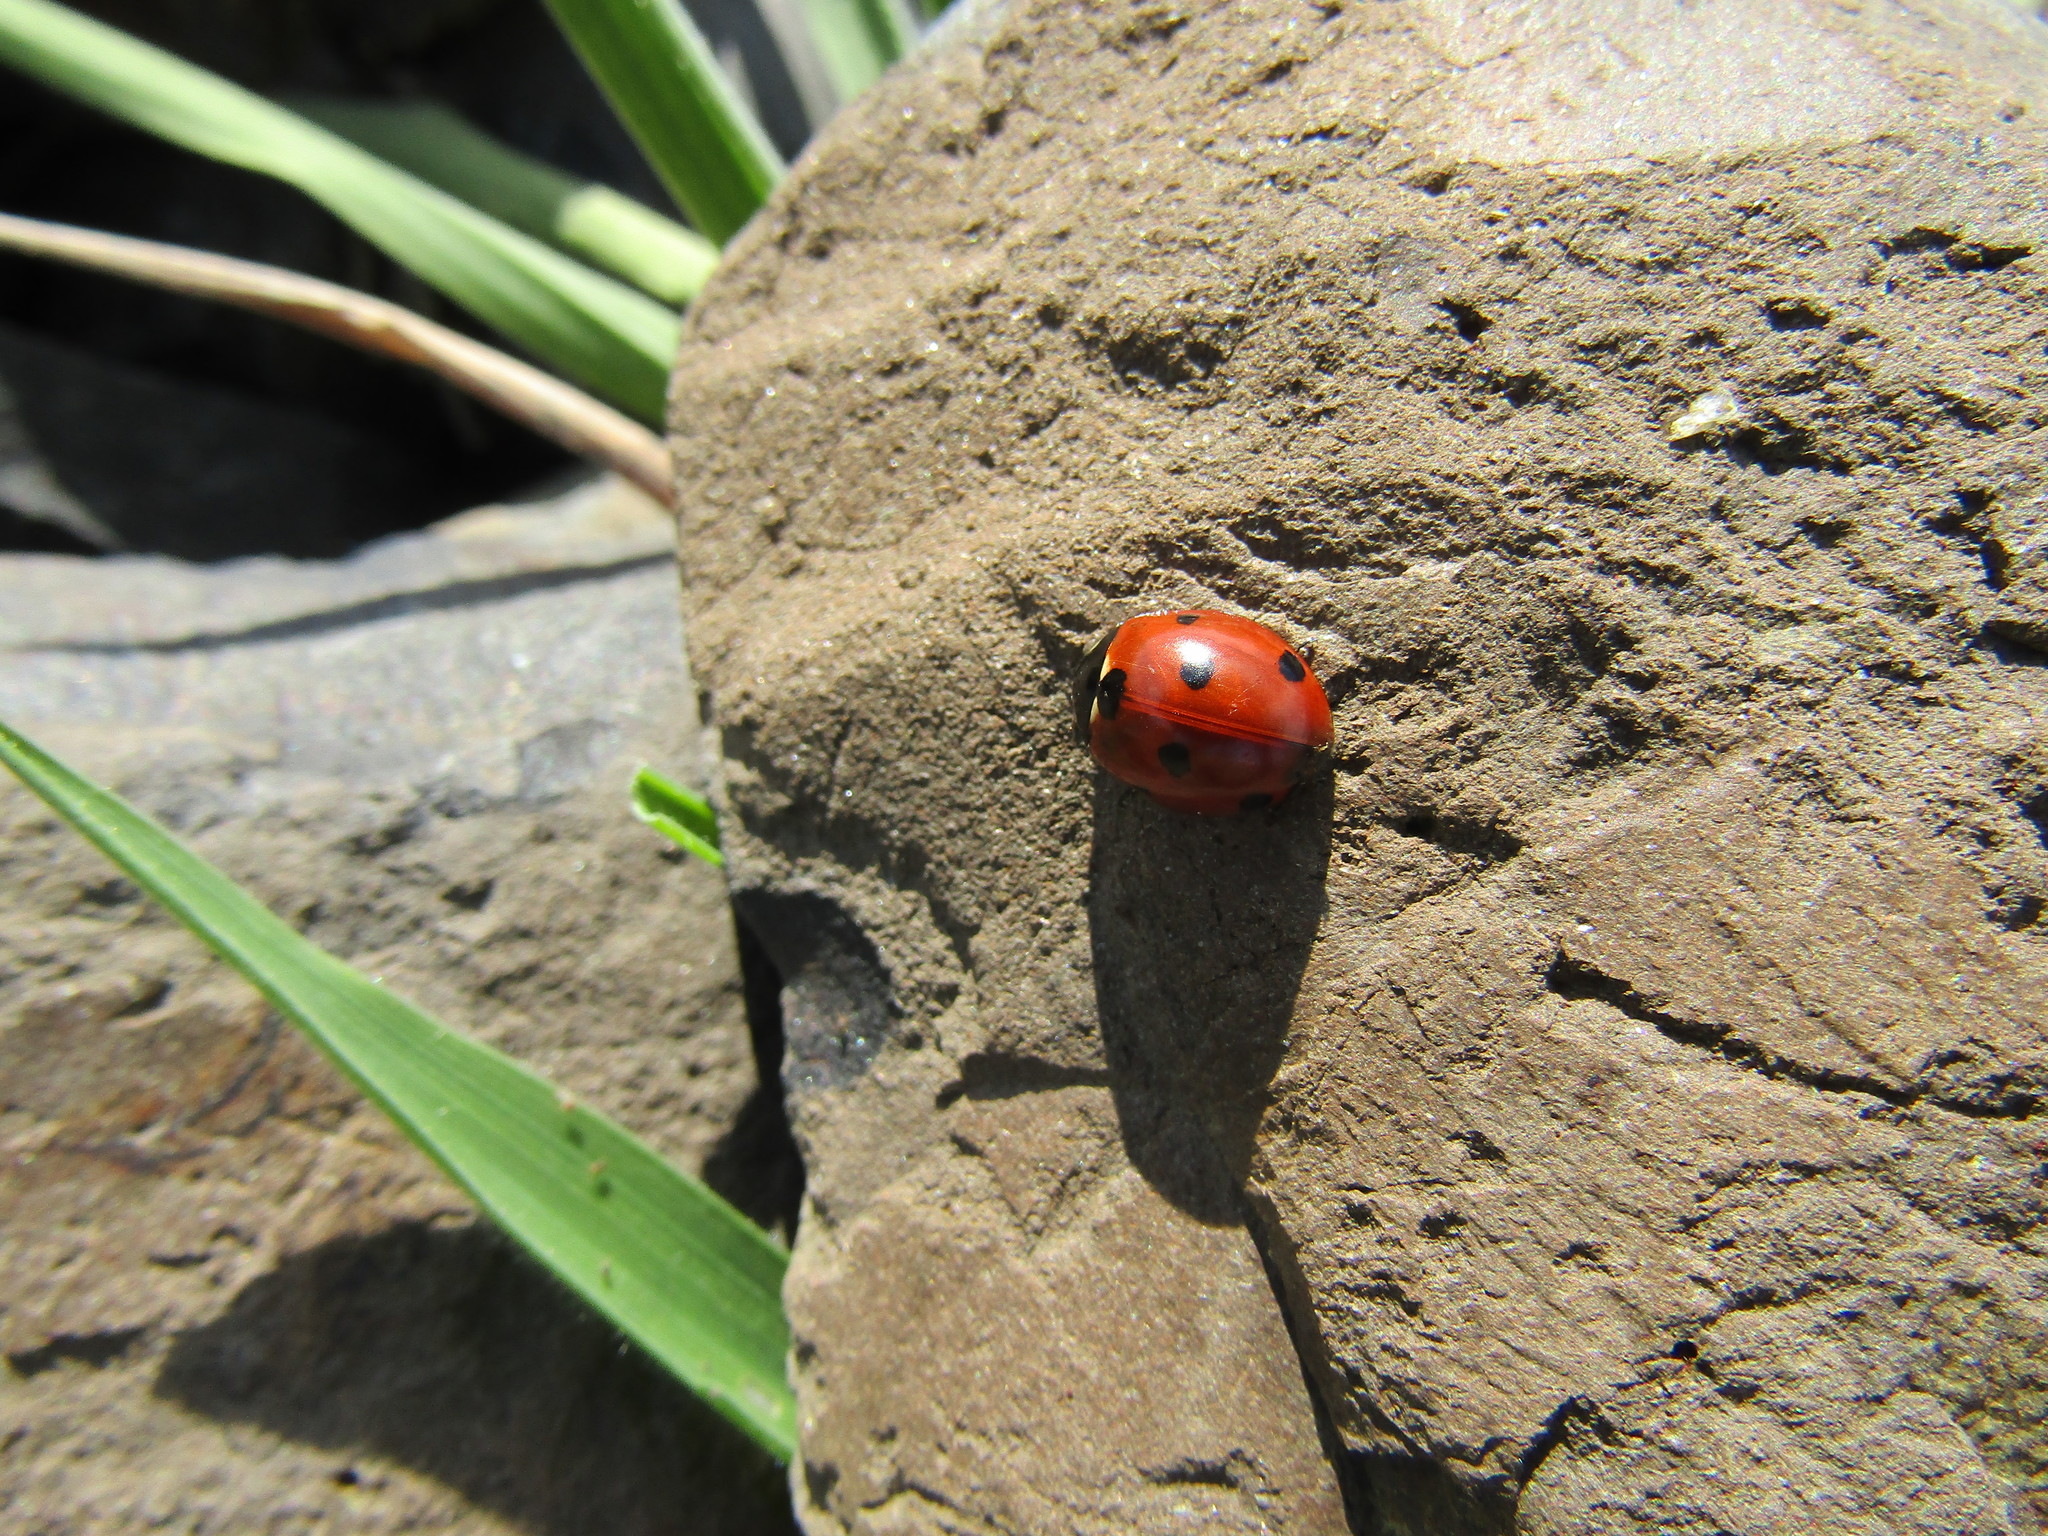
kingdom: Animalia
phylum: Arthropoda
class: Insecta
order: Coleoptera
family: Coccinellidae
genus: Coccinella
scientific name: Coccinella septempunctata
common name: Sevenspotted lady beetle
